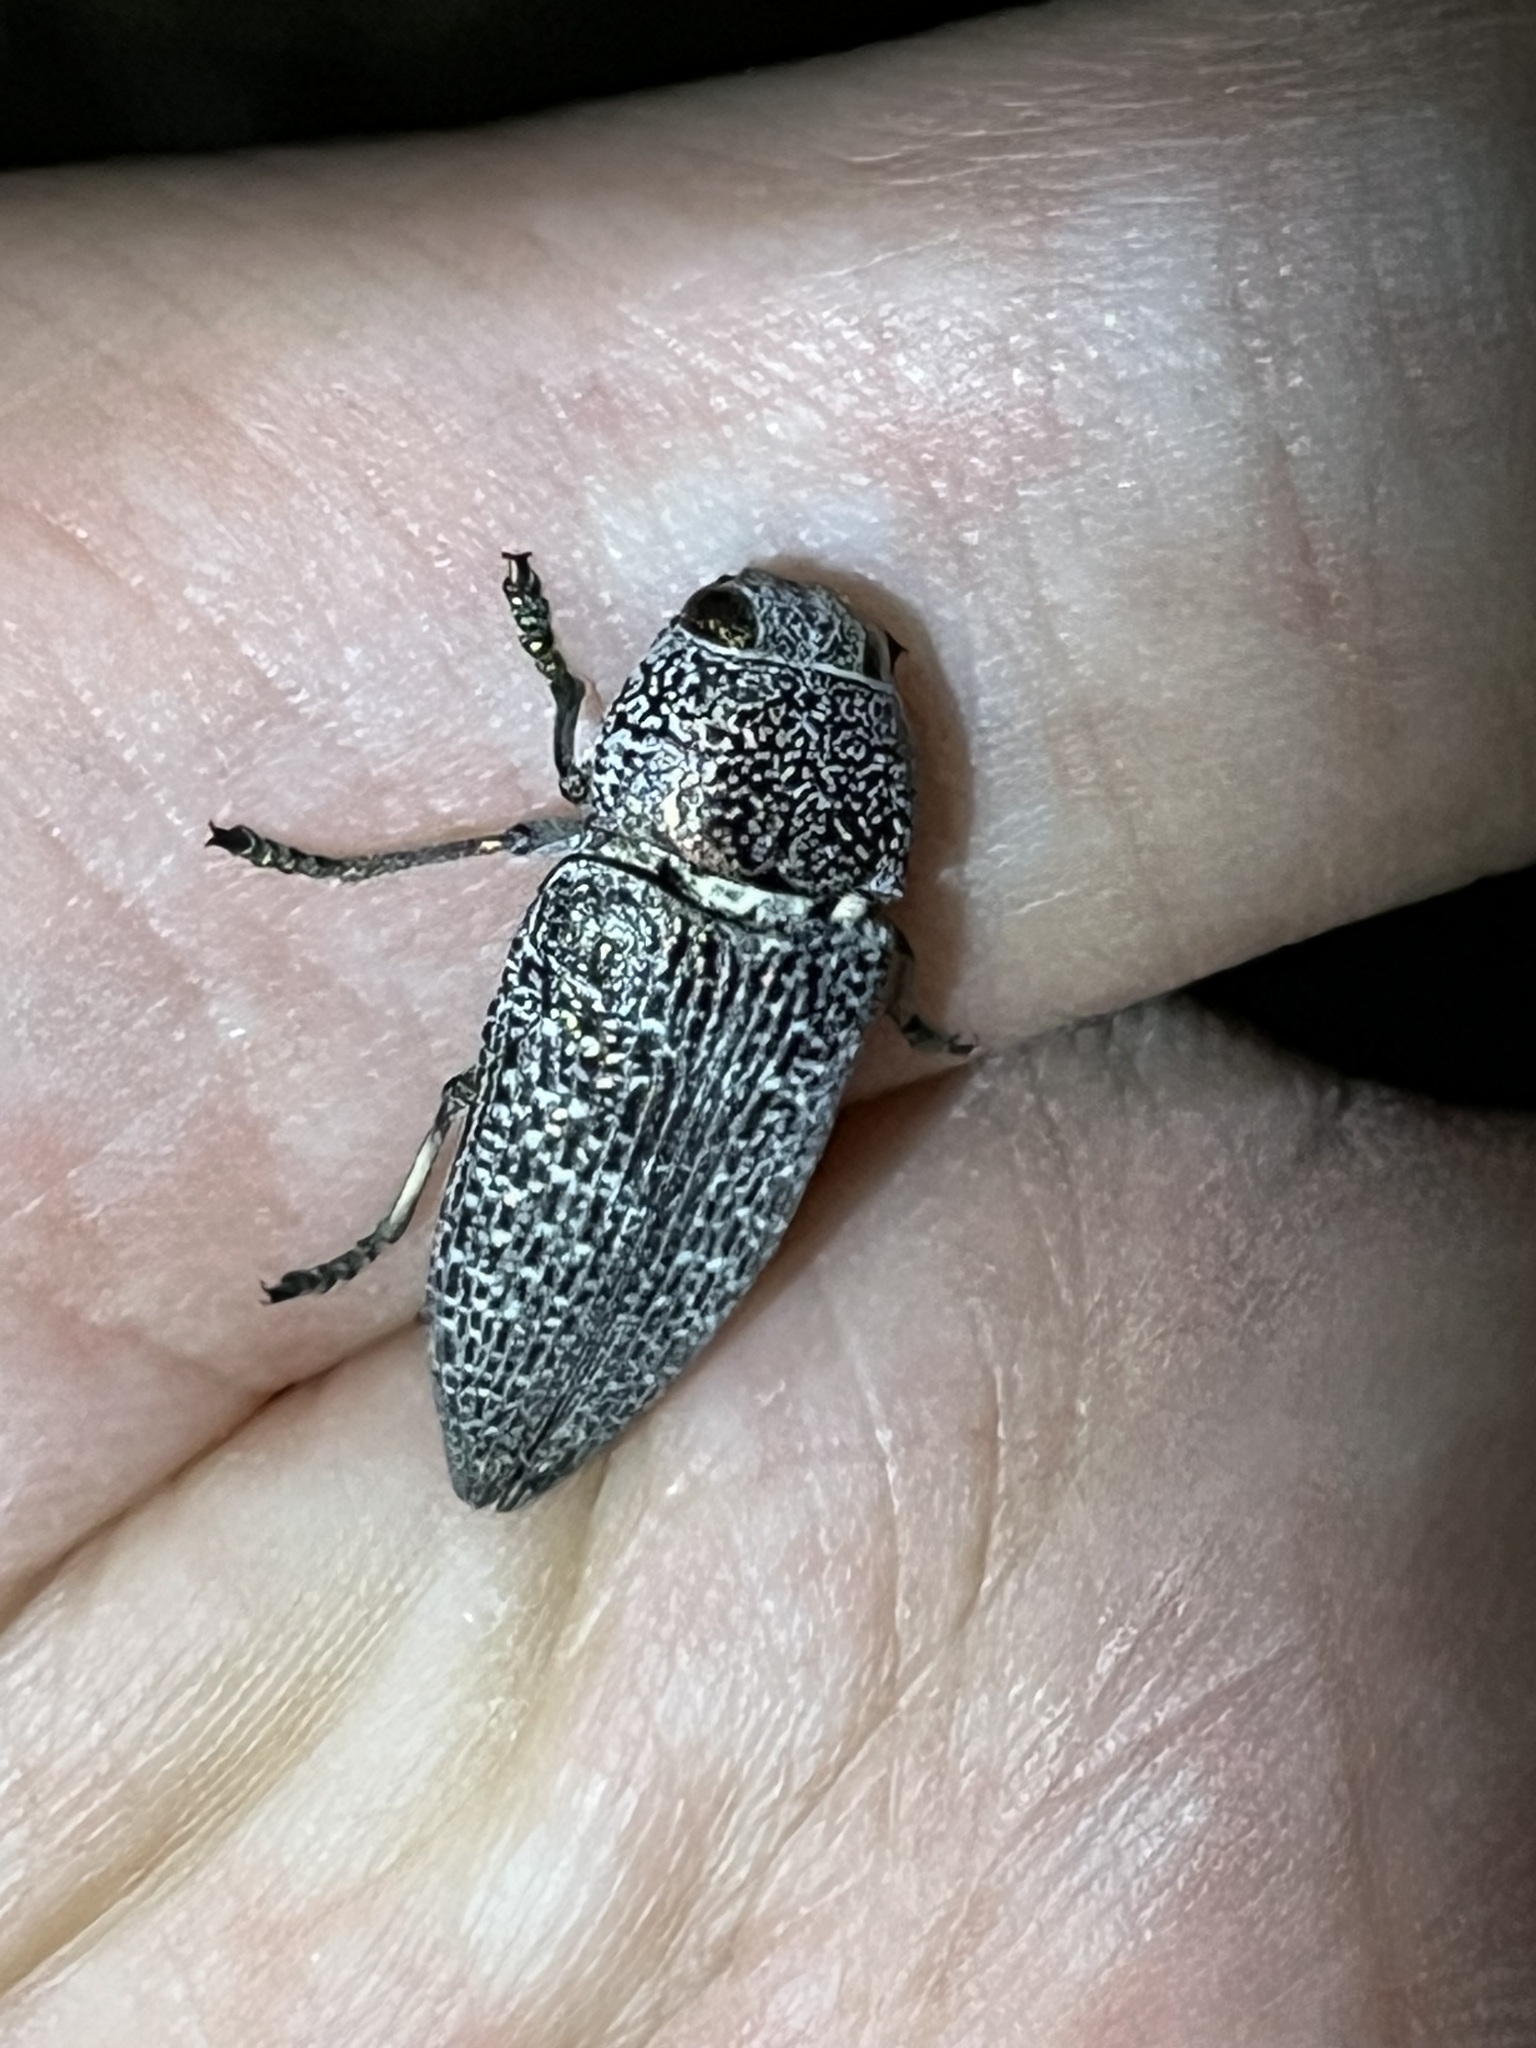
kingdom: Animalia
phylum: Arthropoda
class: Insecta
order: Coleoptera
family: Buprestidae
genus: Lampetis
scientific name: Lampetis mimosae
